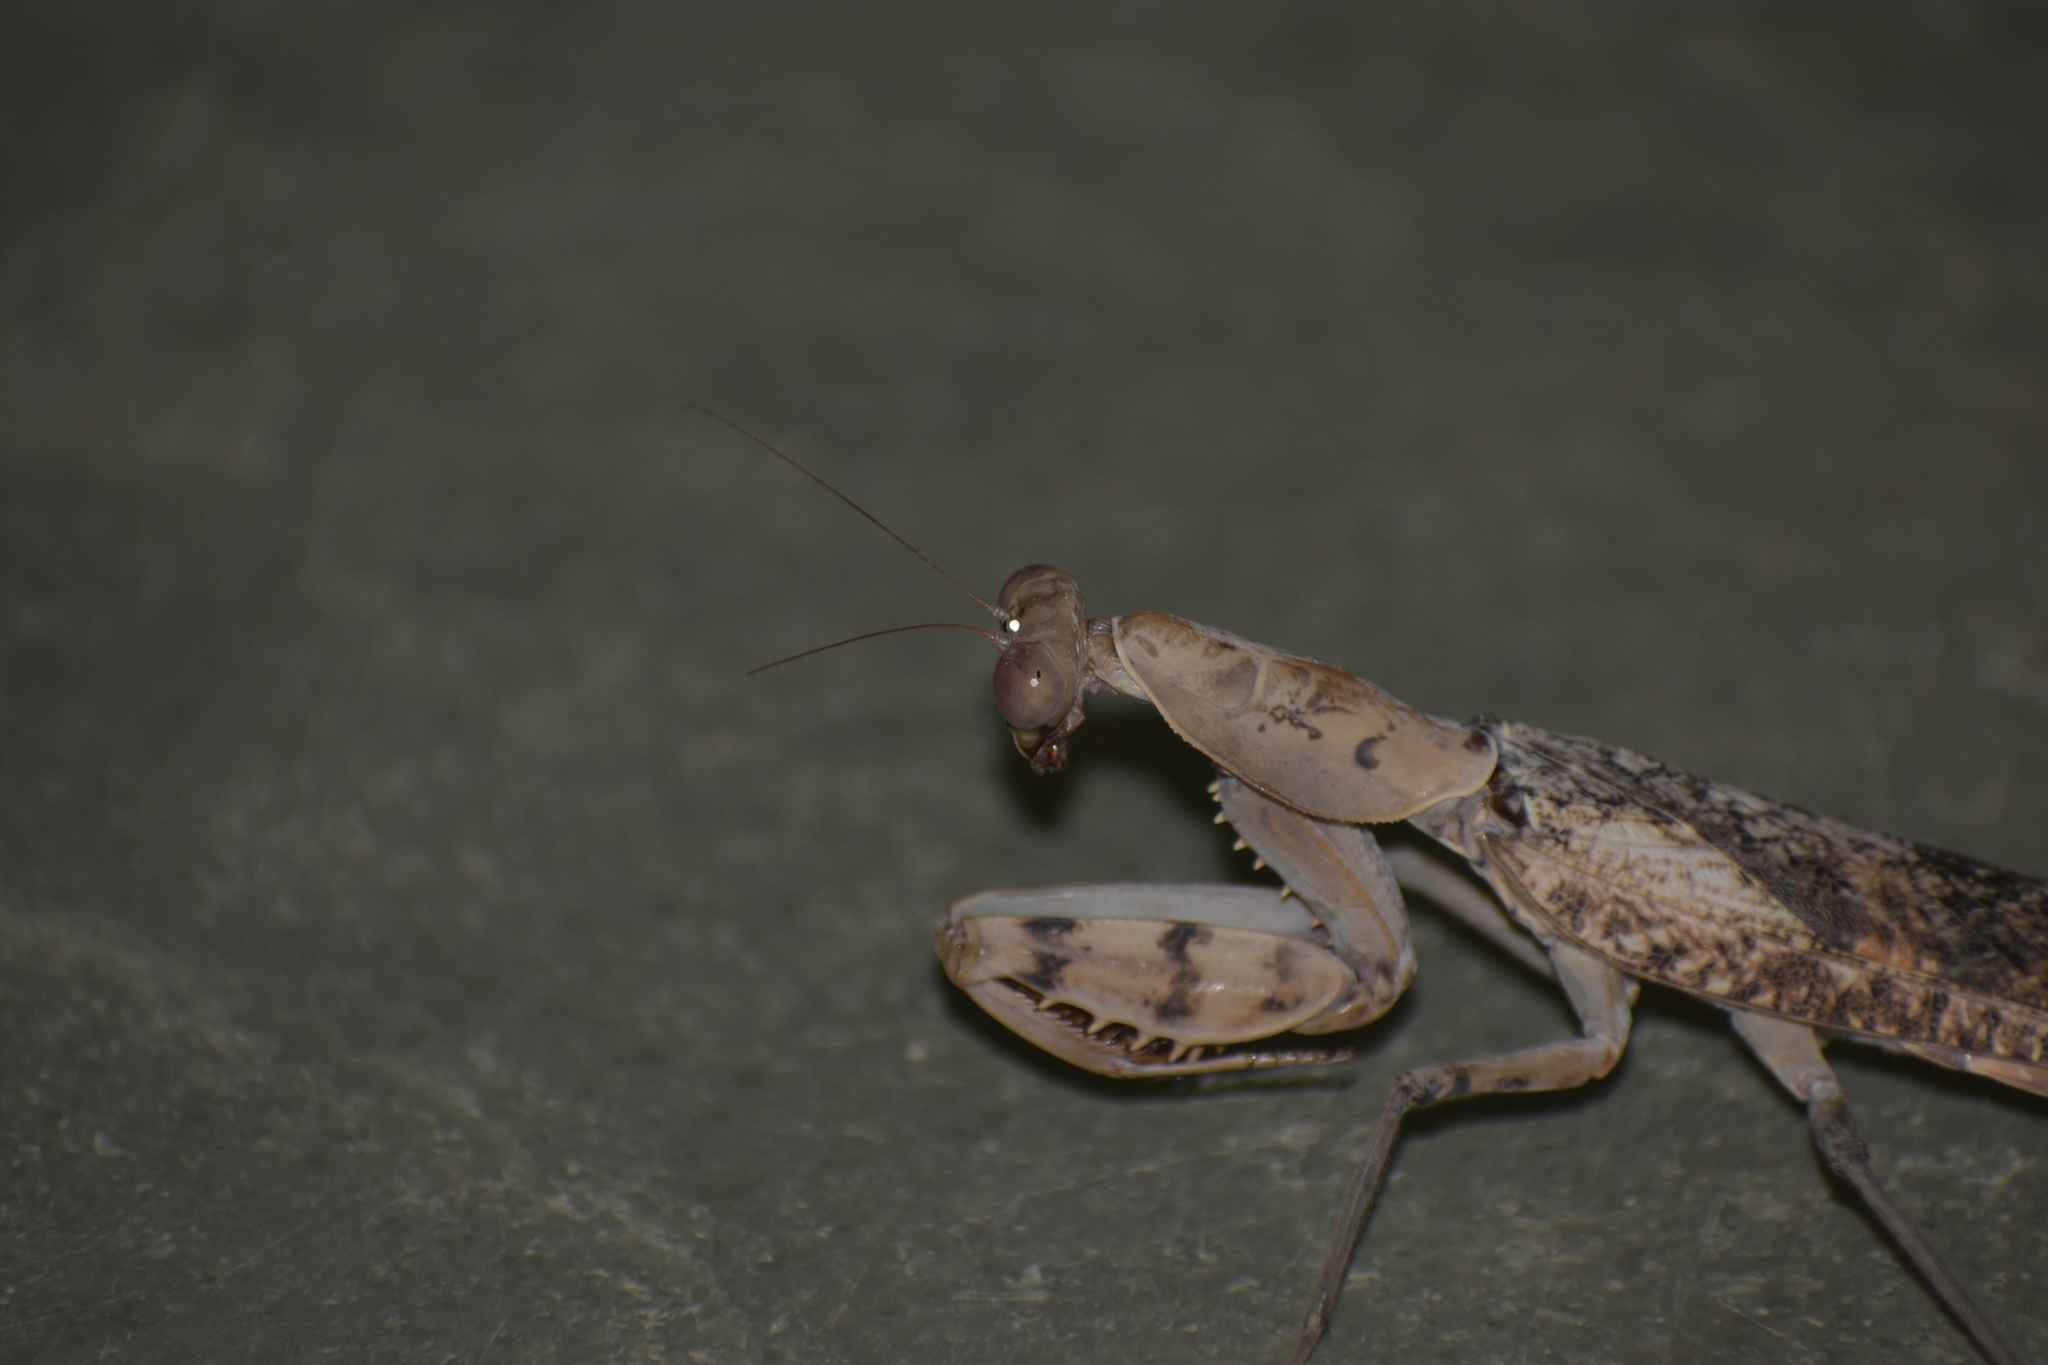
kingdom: Animalia
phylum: Arthropoda
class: Insecta
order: Mantodea
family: Mantidae
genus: Rhombomantis
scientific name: Rhombomantis woodmasoni
